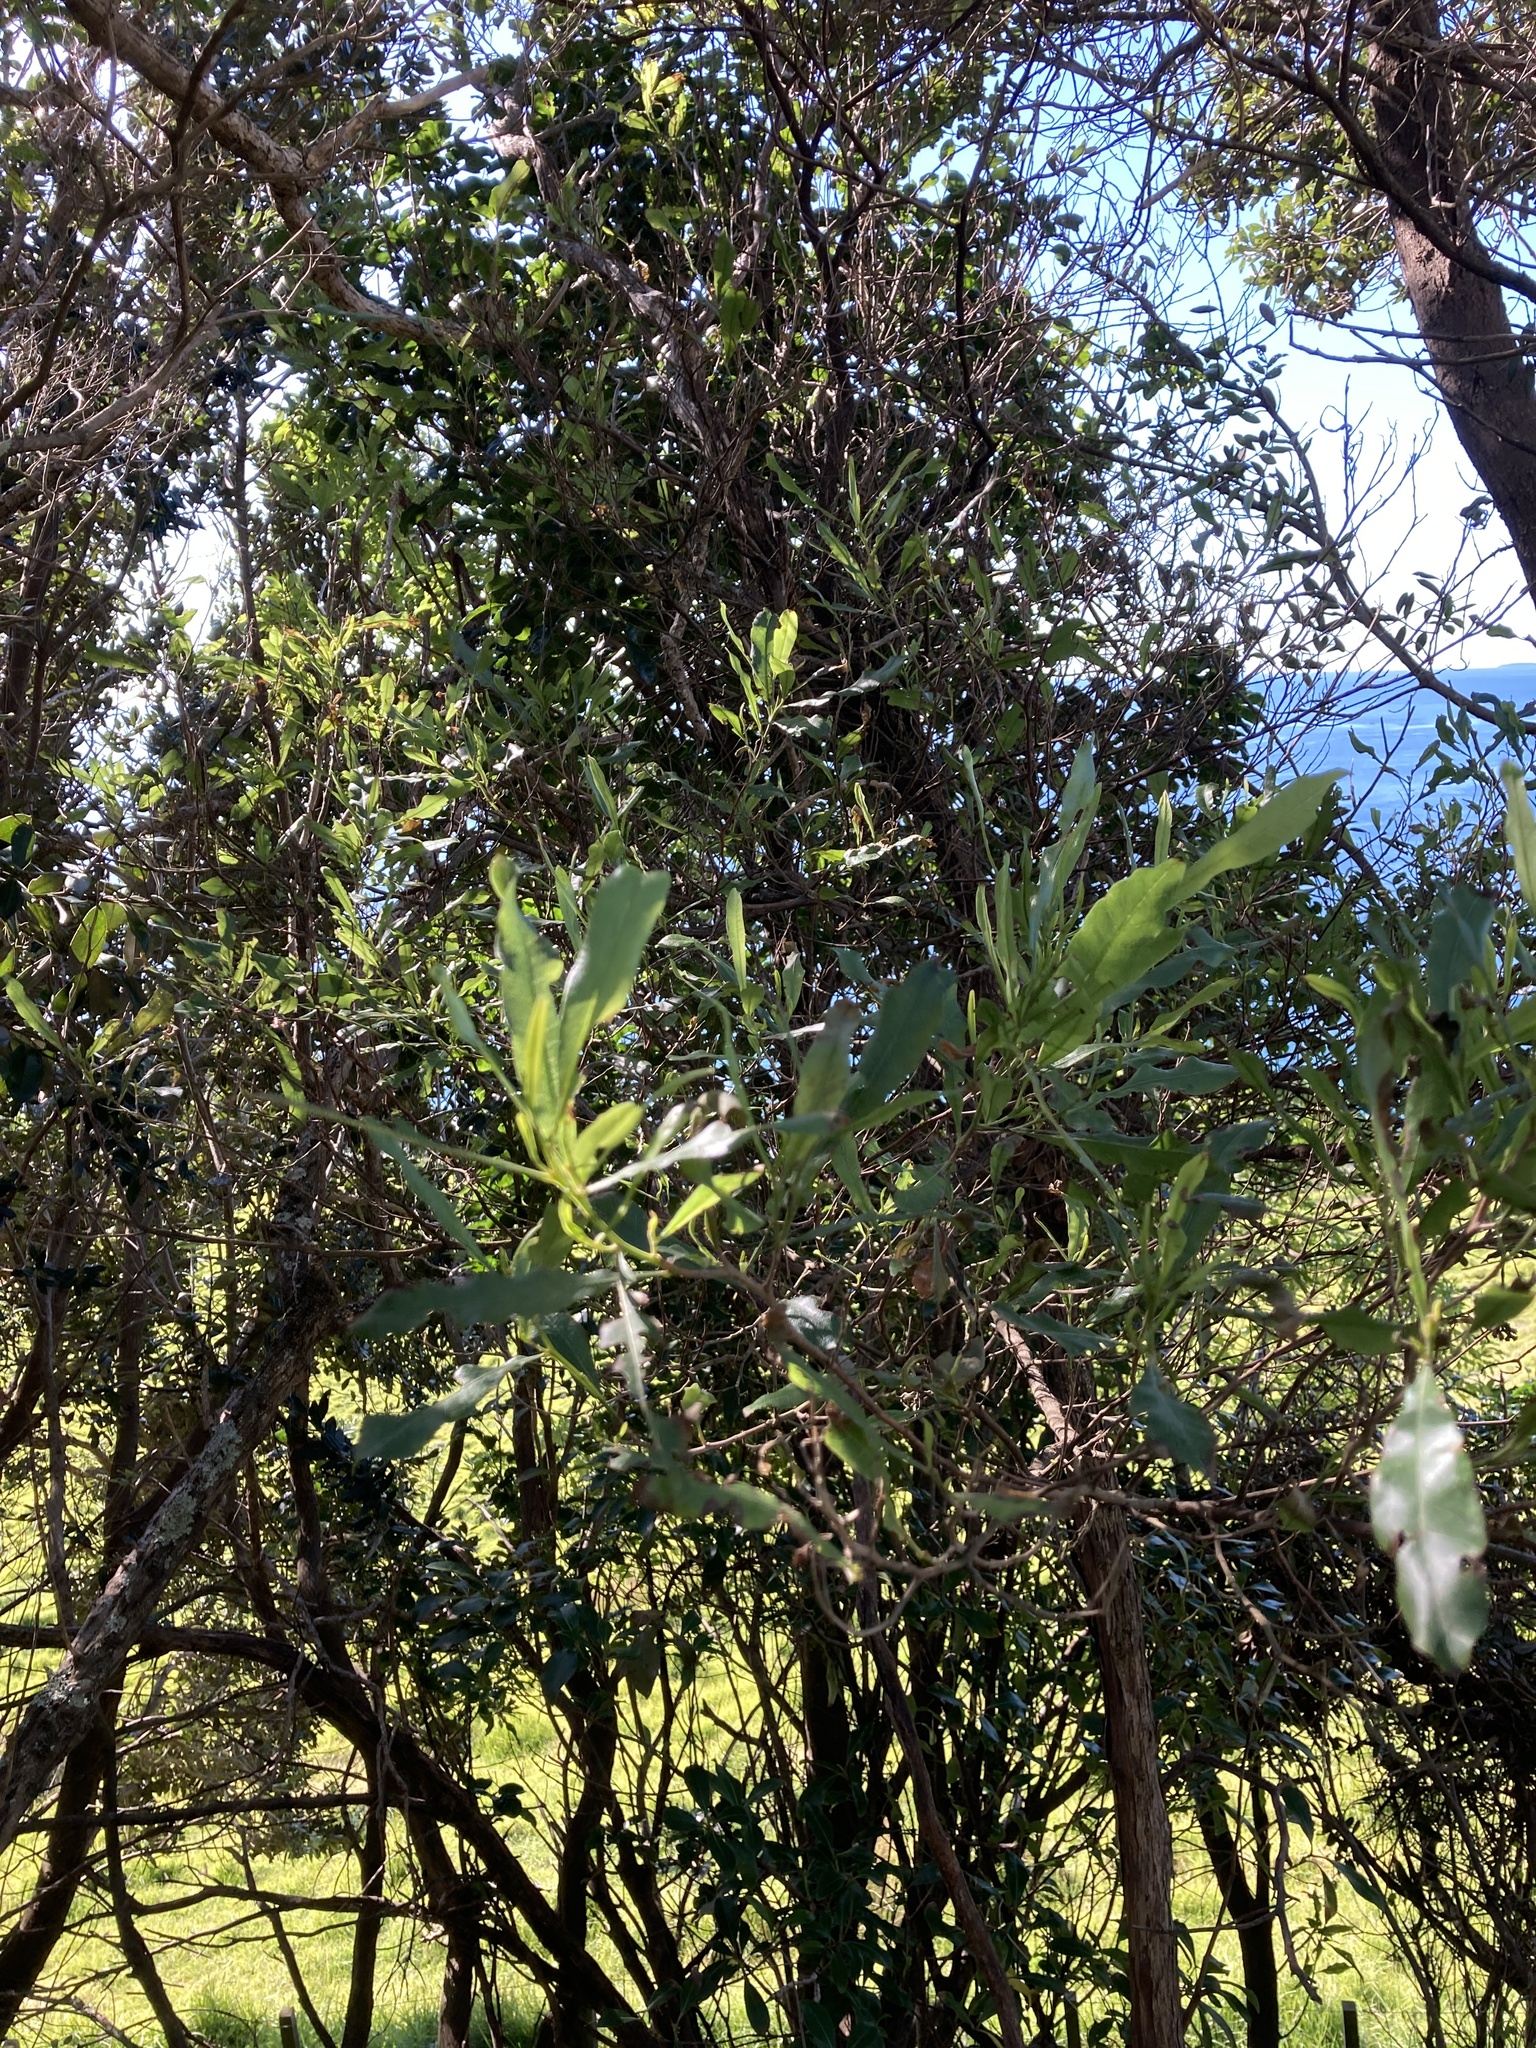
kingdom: Plantae
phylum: Tracheophyta
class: Magnoliopsida
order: Sapindales
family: Sapindaceae
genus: Dodonaea
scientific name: Dodonaea viscosa
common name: Hopbush
